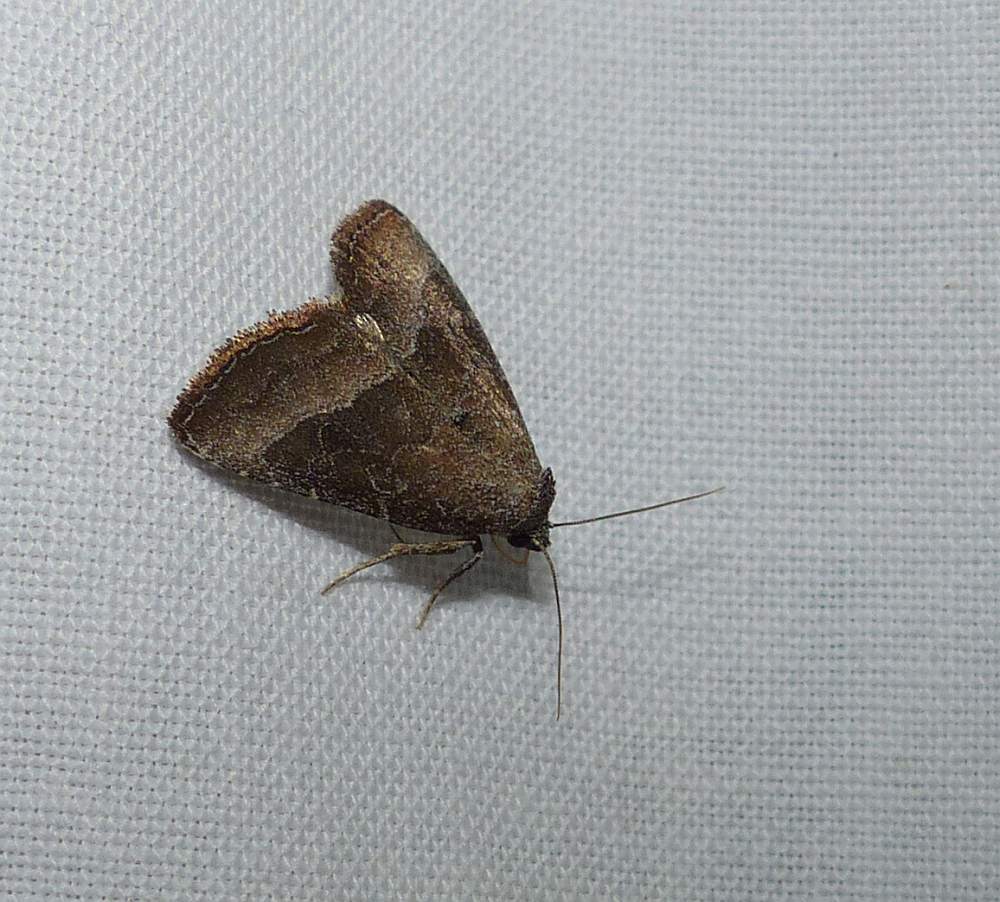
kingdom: Animalia
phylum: Arthropoda
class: Insecta
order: Lepidoptera
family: Noctuidae
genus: Ogdoconta
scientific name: Ogdoconta cinereola
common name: Common pinkband
